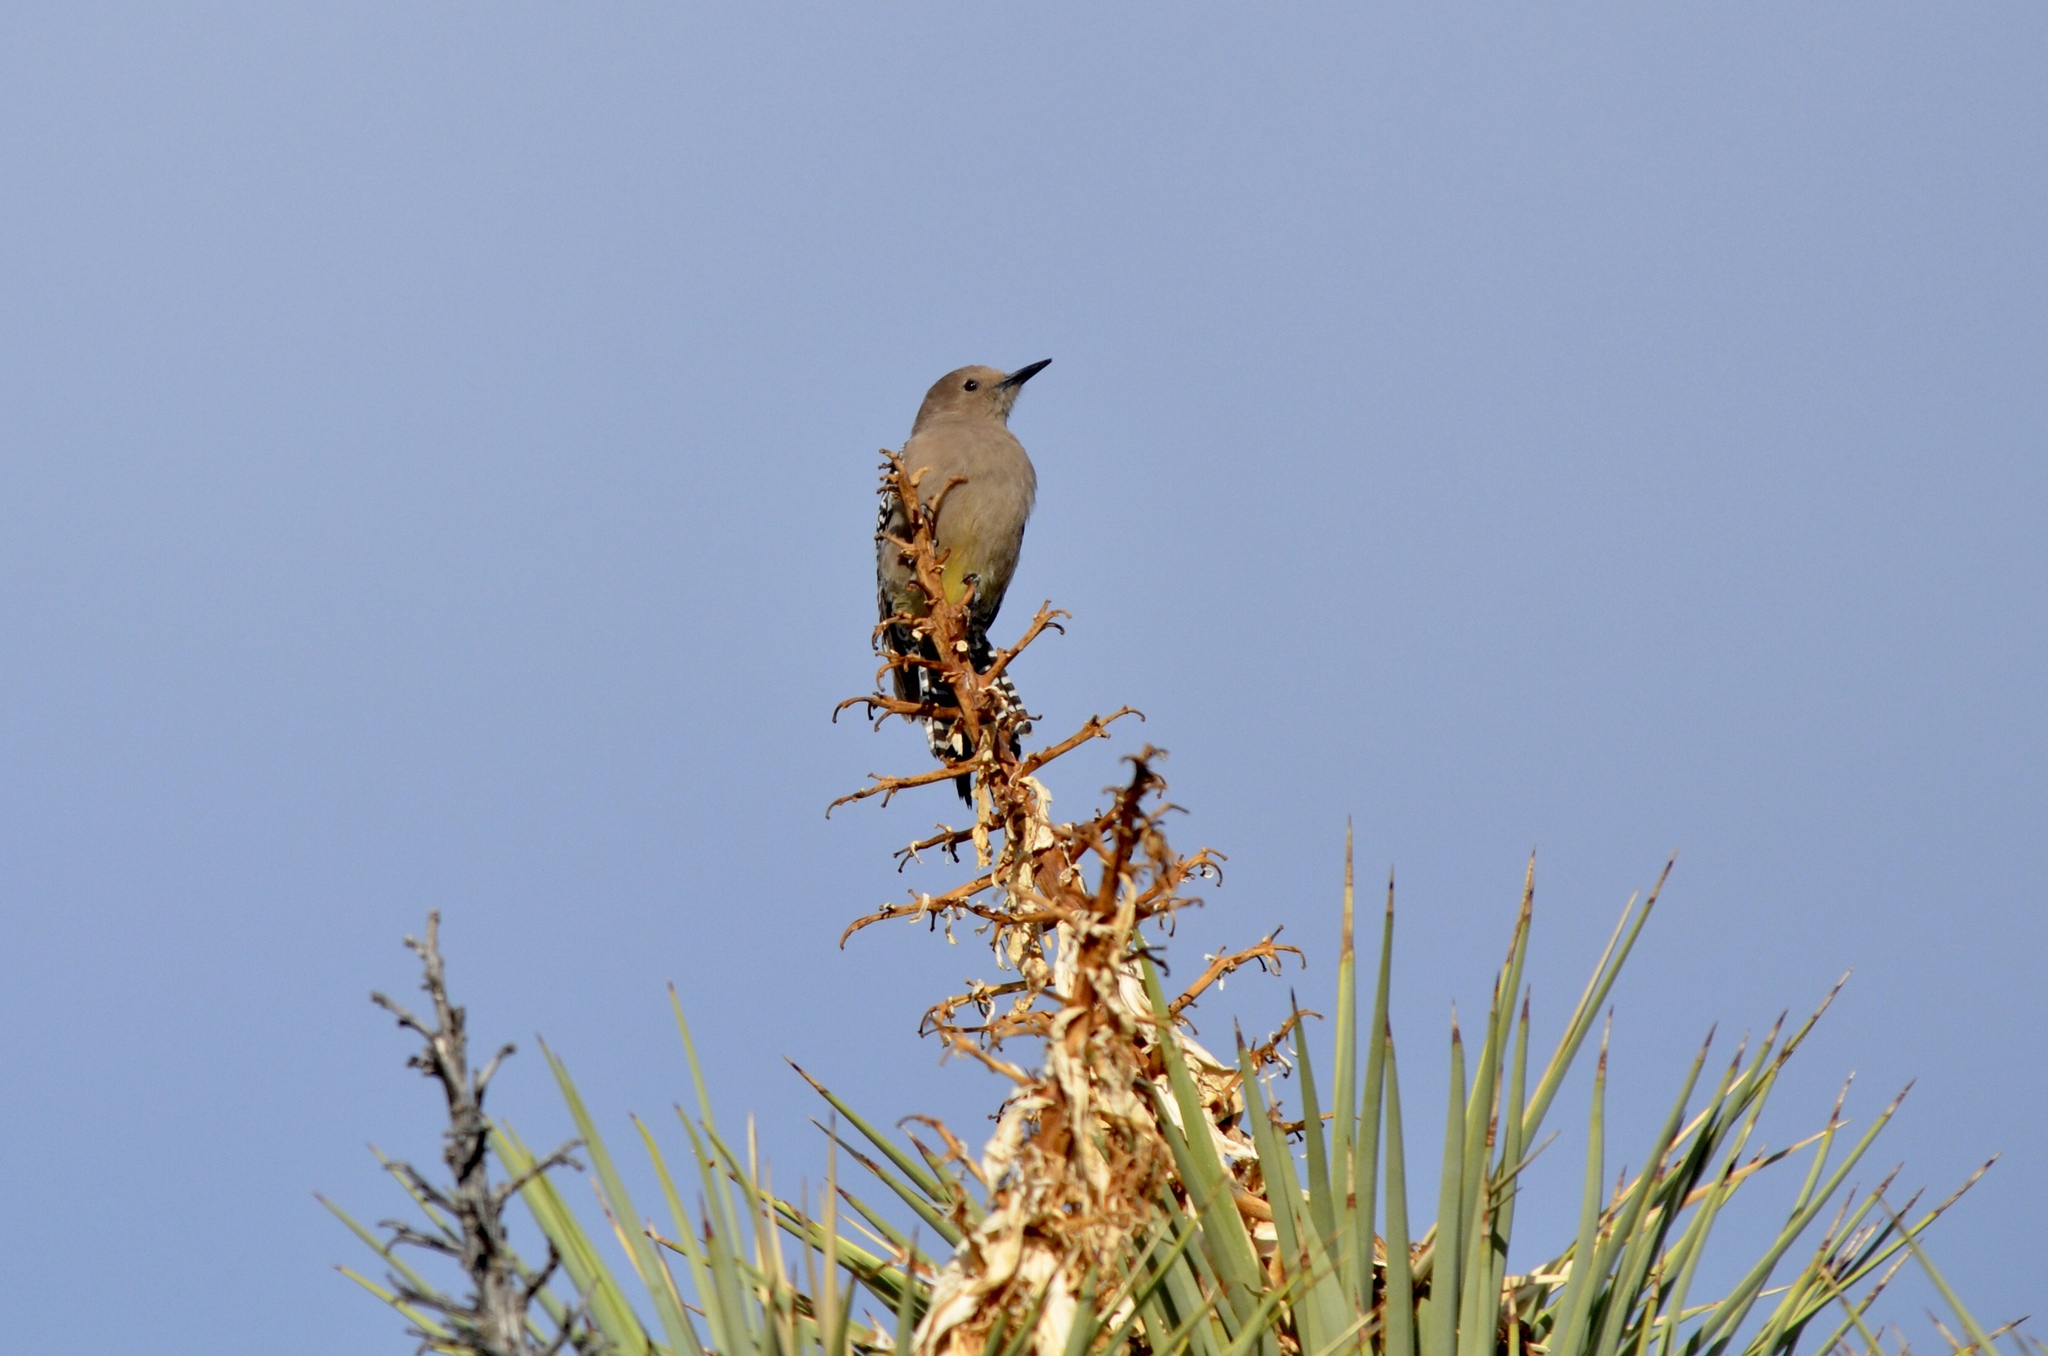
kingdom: Animalia
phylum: Chordata
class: Aves
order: Piciformes
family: Picidae
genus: Melanerpes
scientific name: Melanerpes uropygialis
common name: Gila woodpecker
